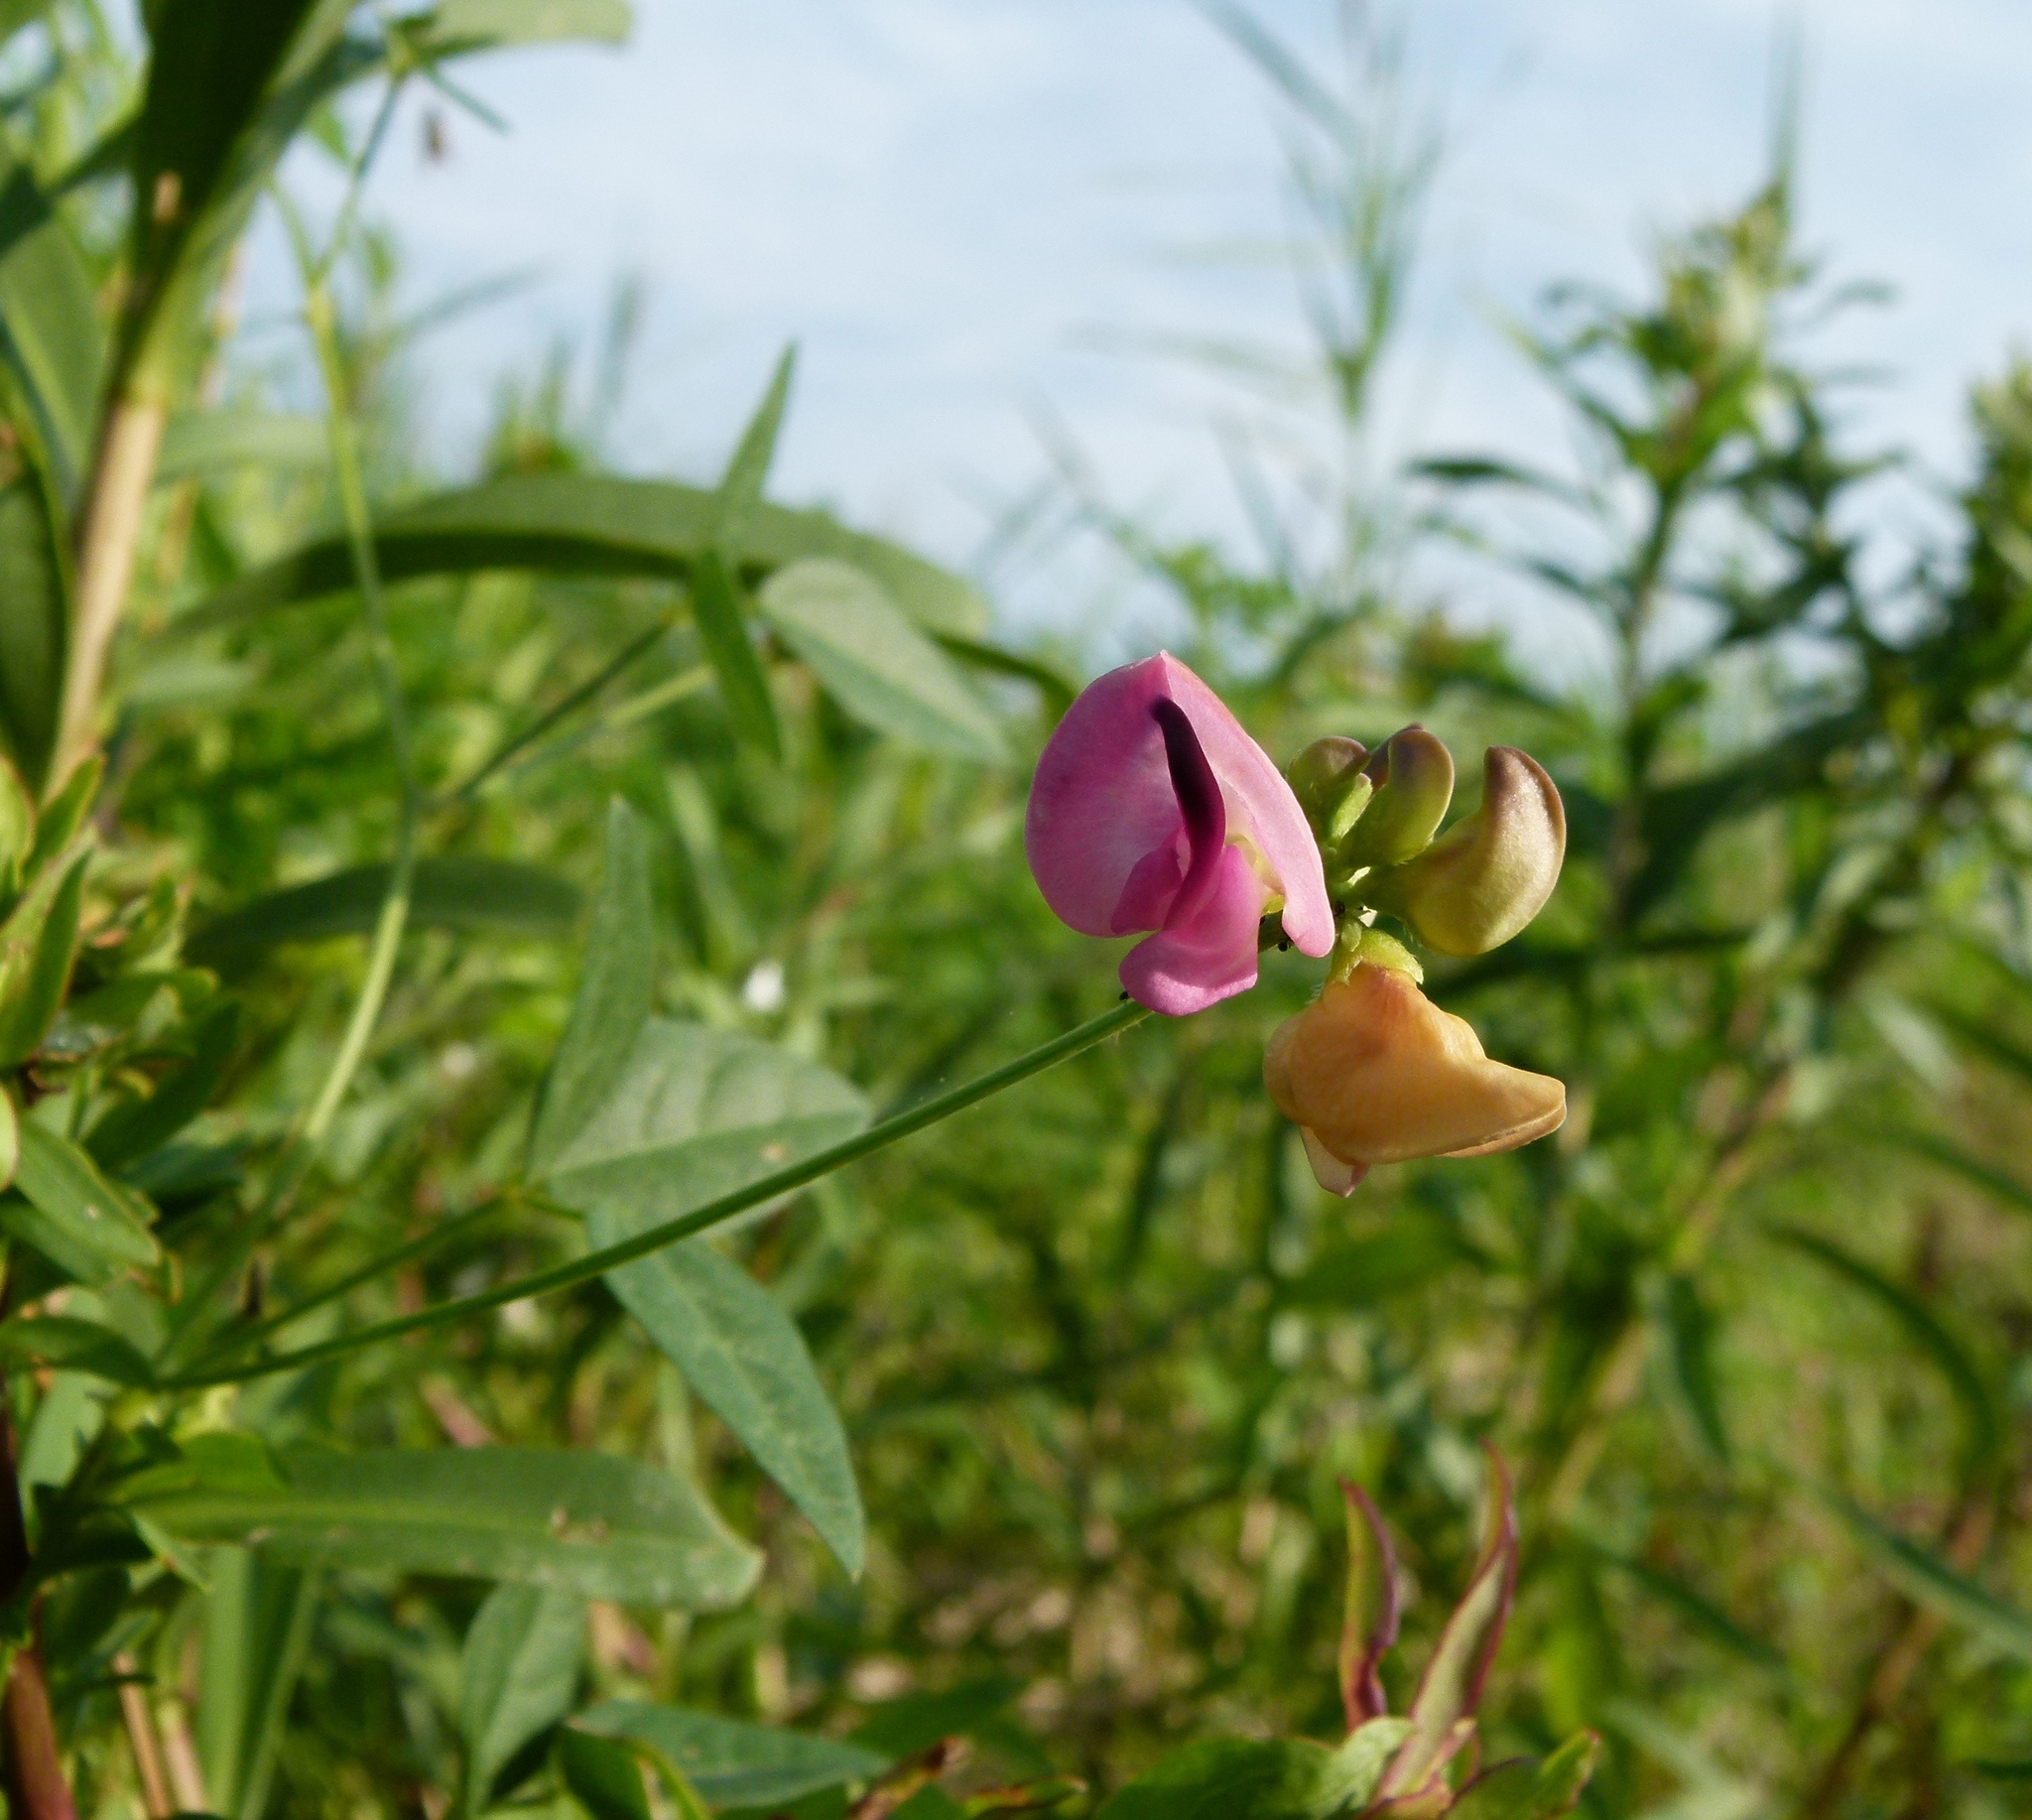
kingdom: Plantae
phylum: Tracheophyta
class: Magnoliopsida
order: Fabales
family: Fabaceae
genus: Strophostyles
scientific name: Strophostyles umbellata
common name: Perennial wild bean
